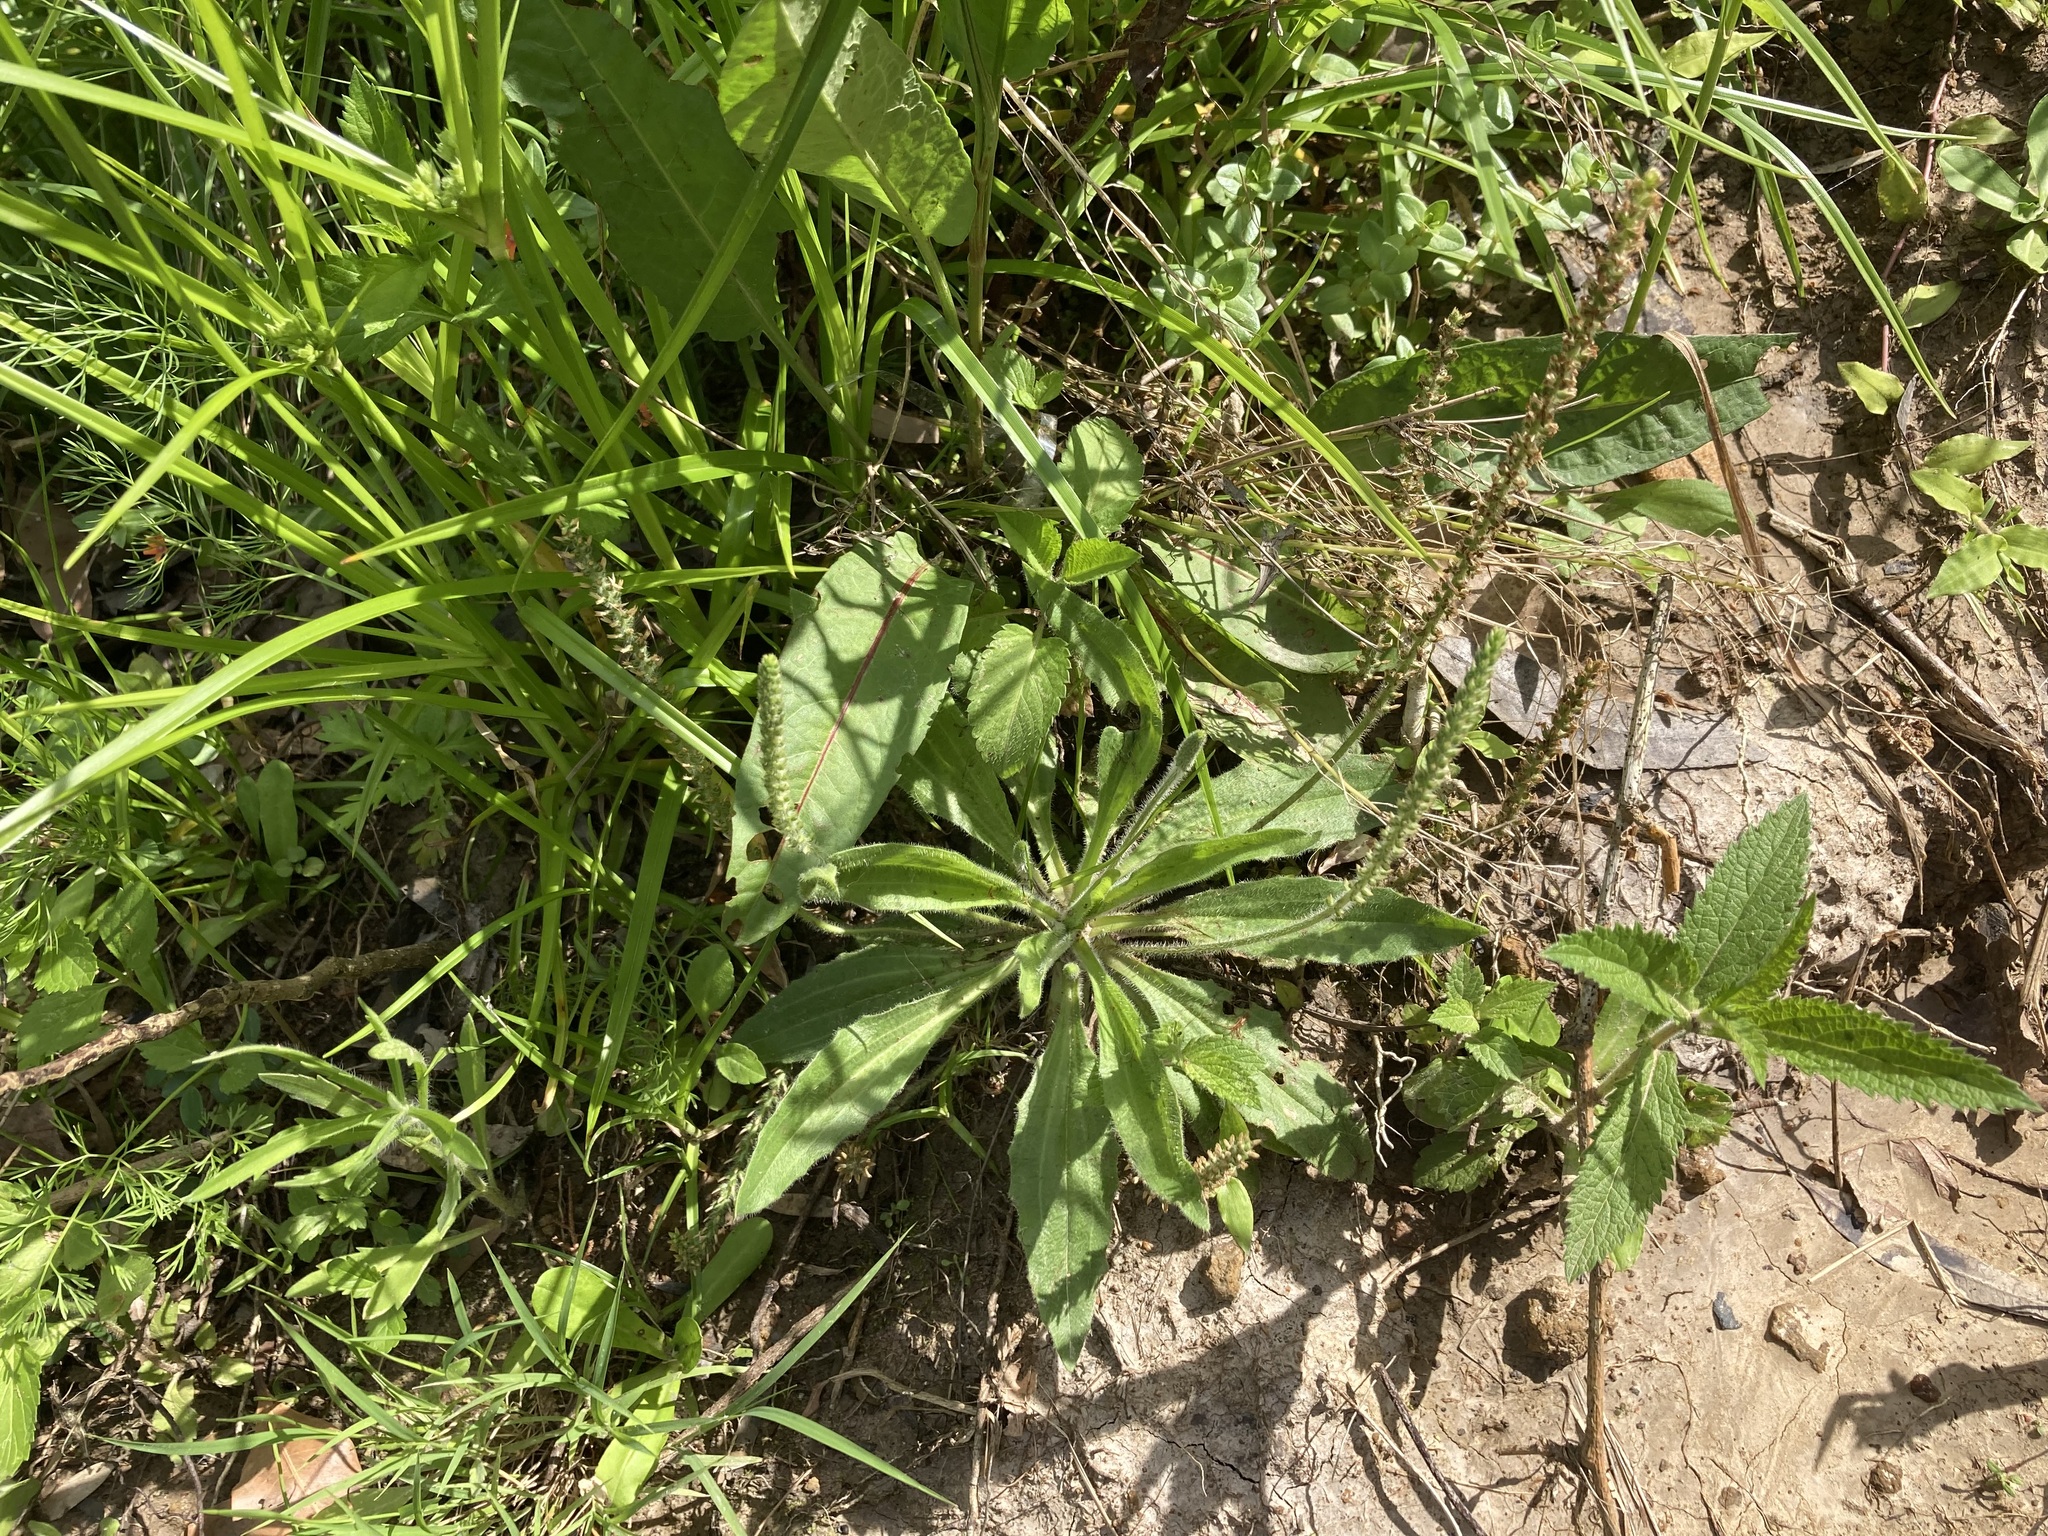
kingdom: Plantae
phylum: Tracheophyta
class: Magnoliopsida
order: Lamiales
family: Plantaginaceae
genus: Plantago
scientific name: Plantago myosuros
